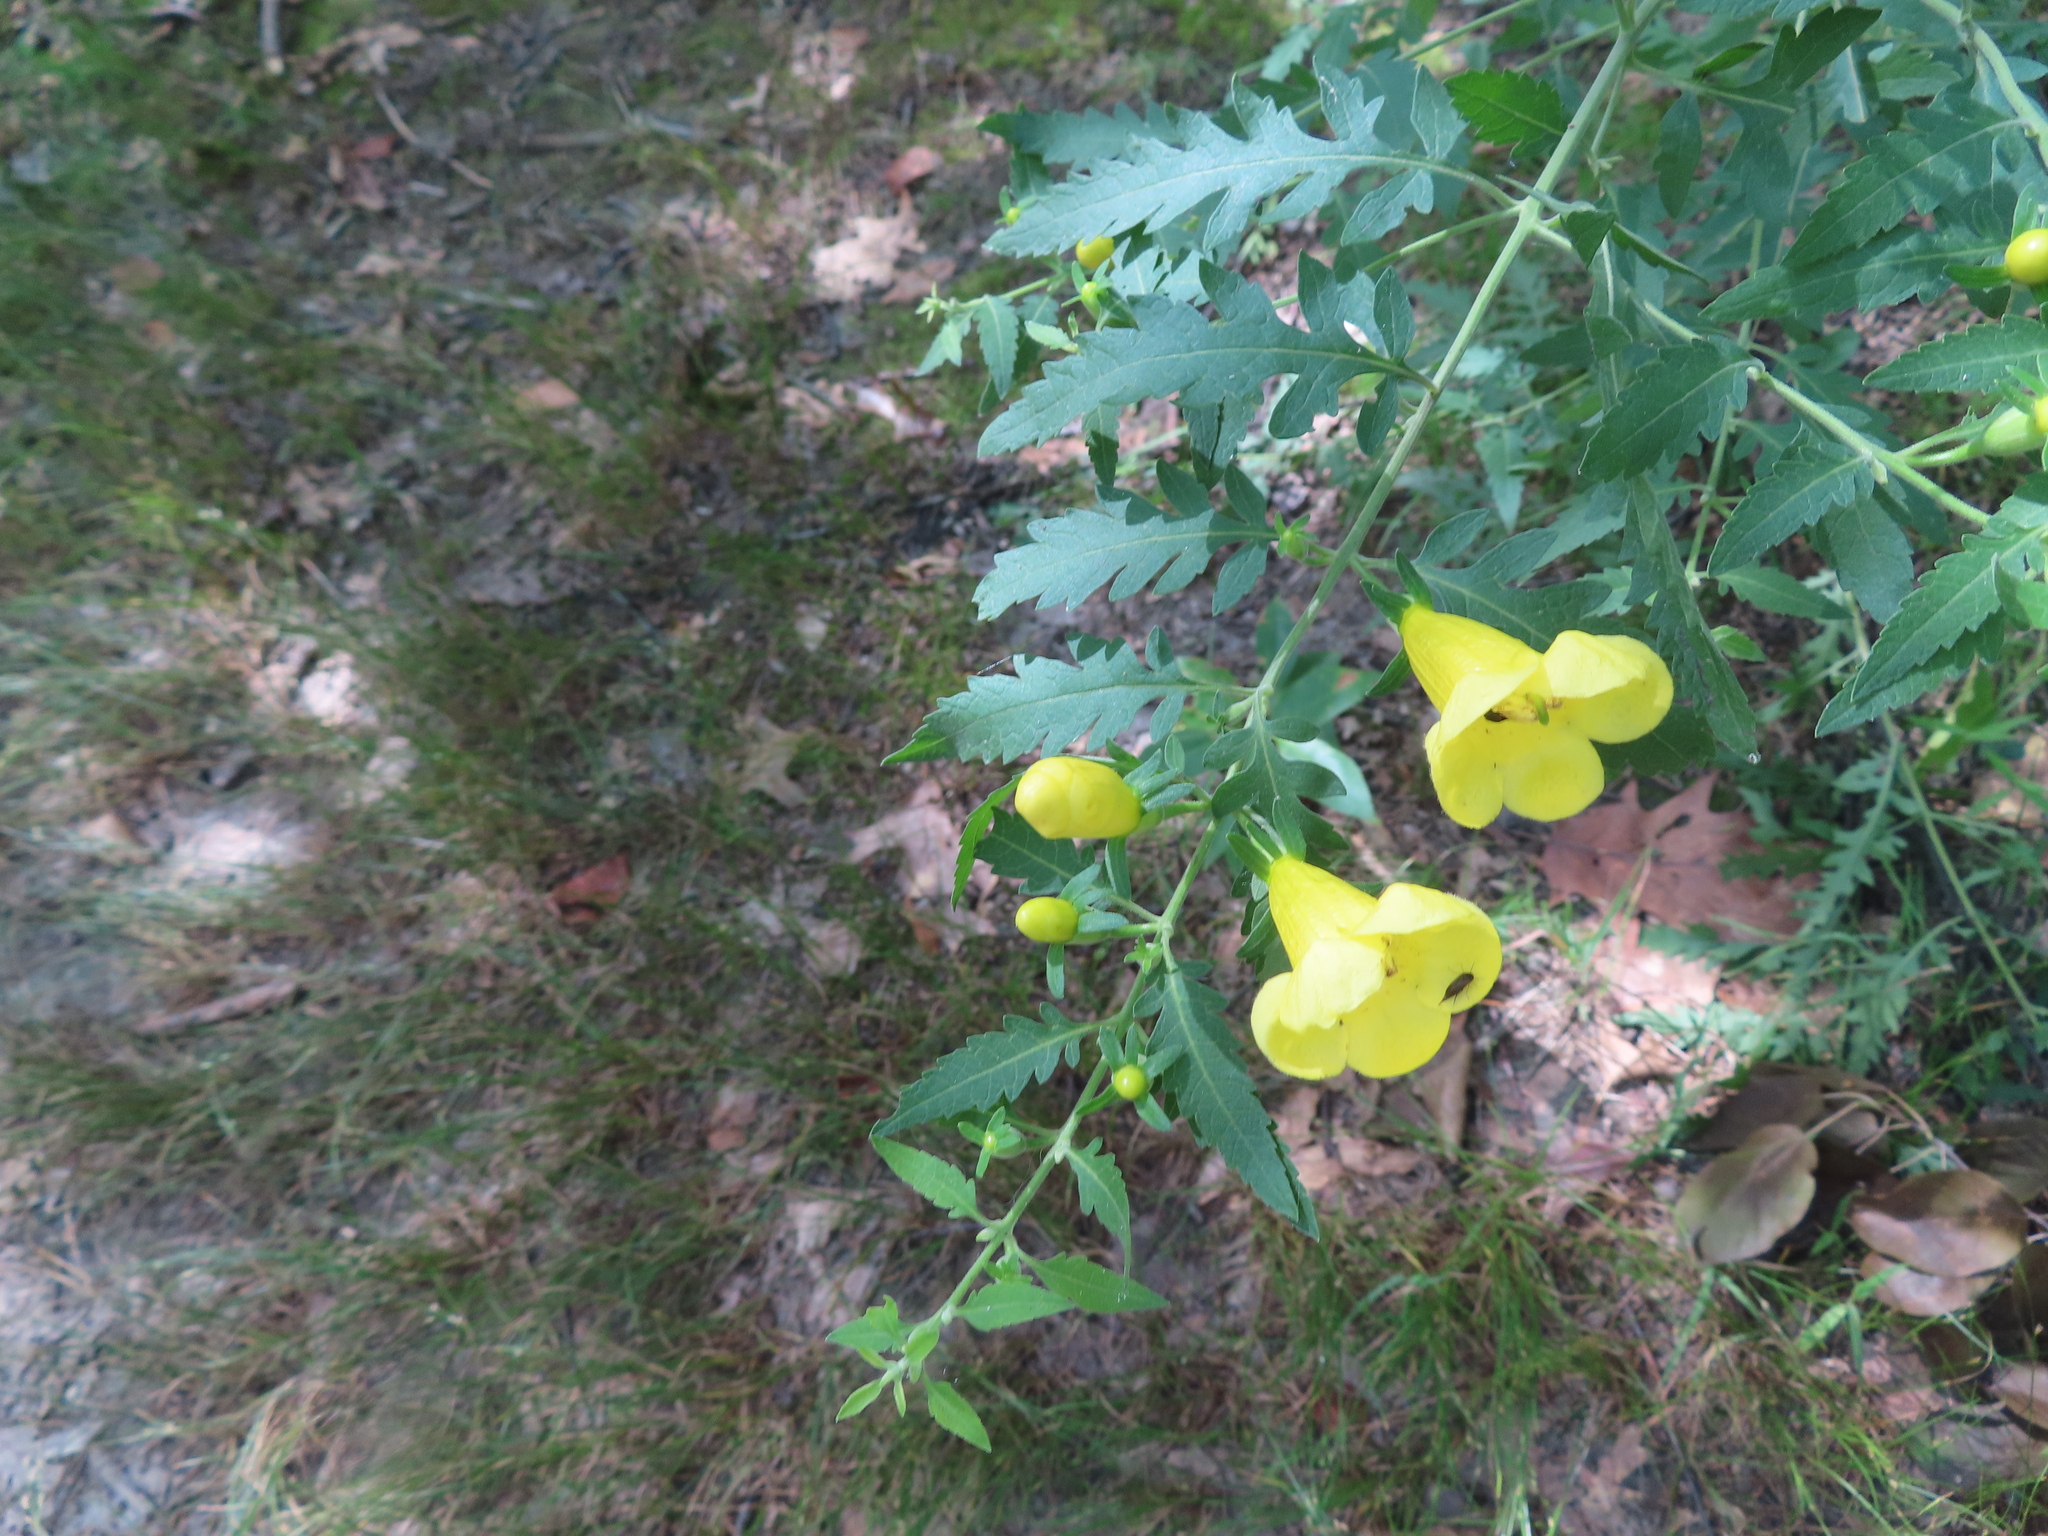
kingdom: Plantae
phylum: Tracheophyta
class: Magnoliopsida
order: Lamiales
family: Orobanchaceae
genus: Aureolaria
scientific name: Aureolaria grandiflora
